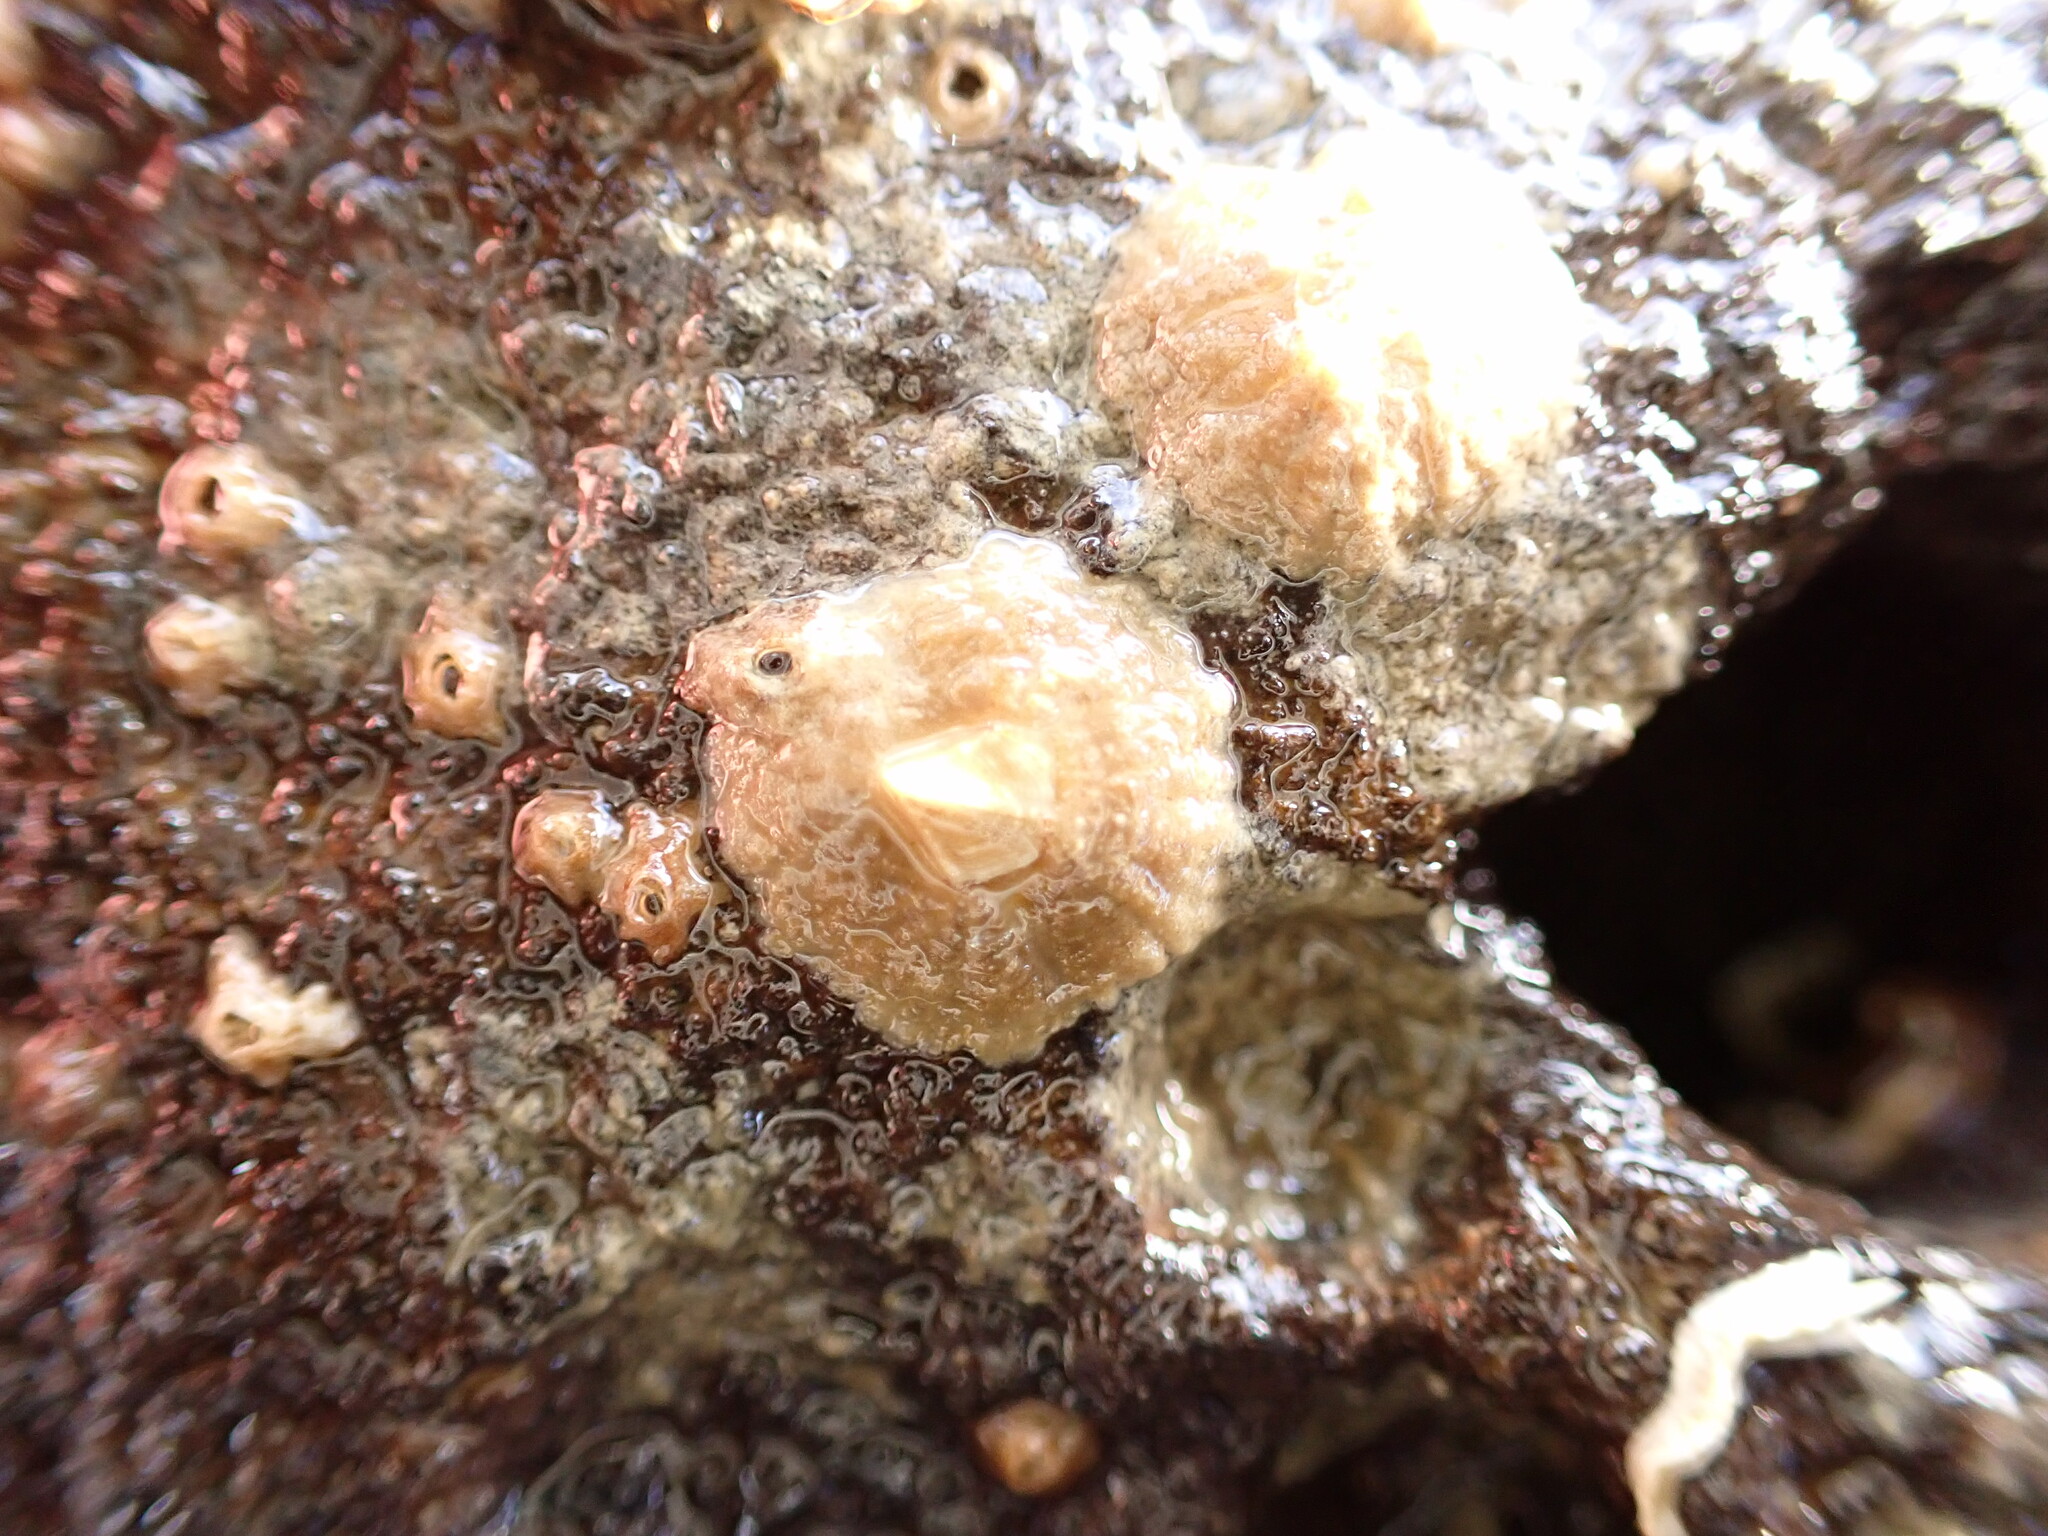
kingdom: Animalia
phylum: Arthropoda
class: Maxillopoda
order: Sessilia
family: Tetraclitidae
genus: Tetraclitella
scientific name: Tetraclitella depressa
